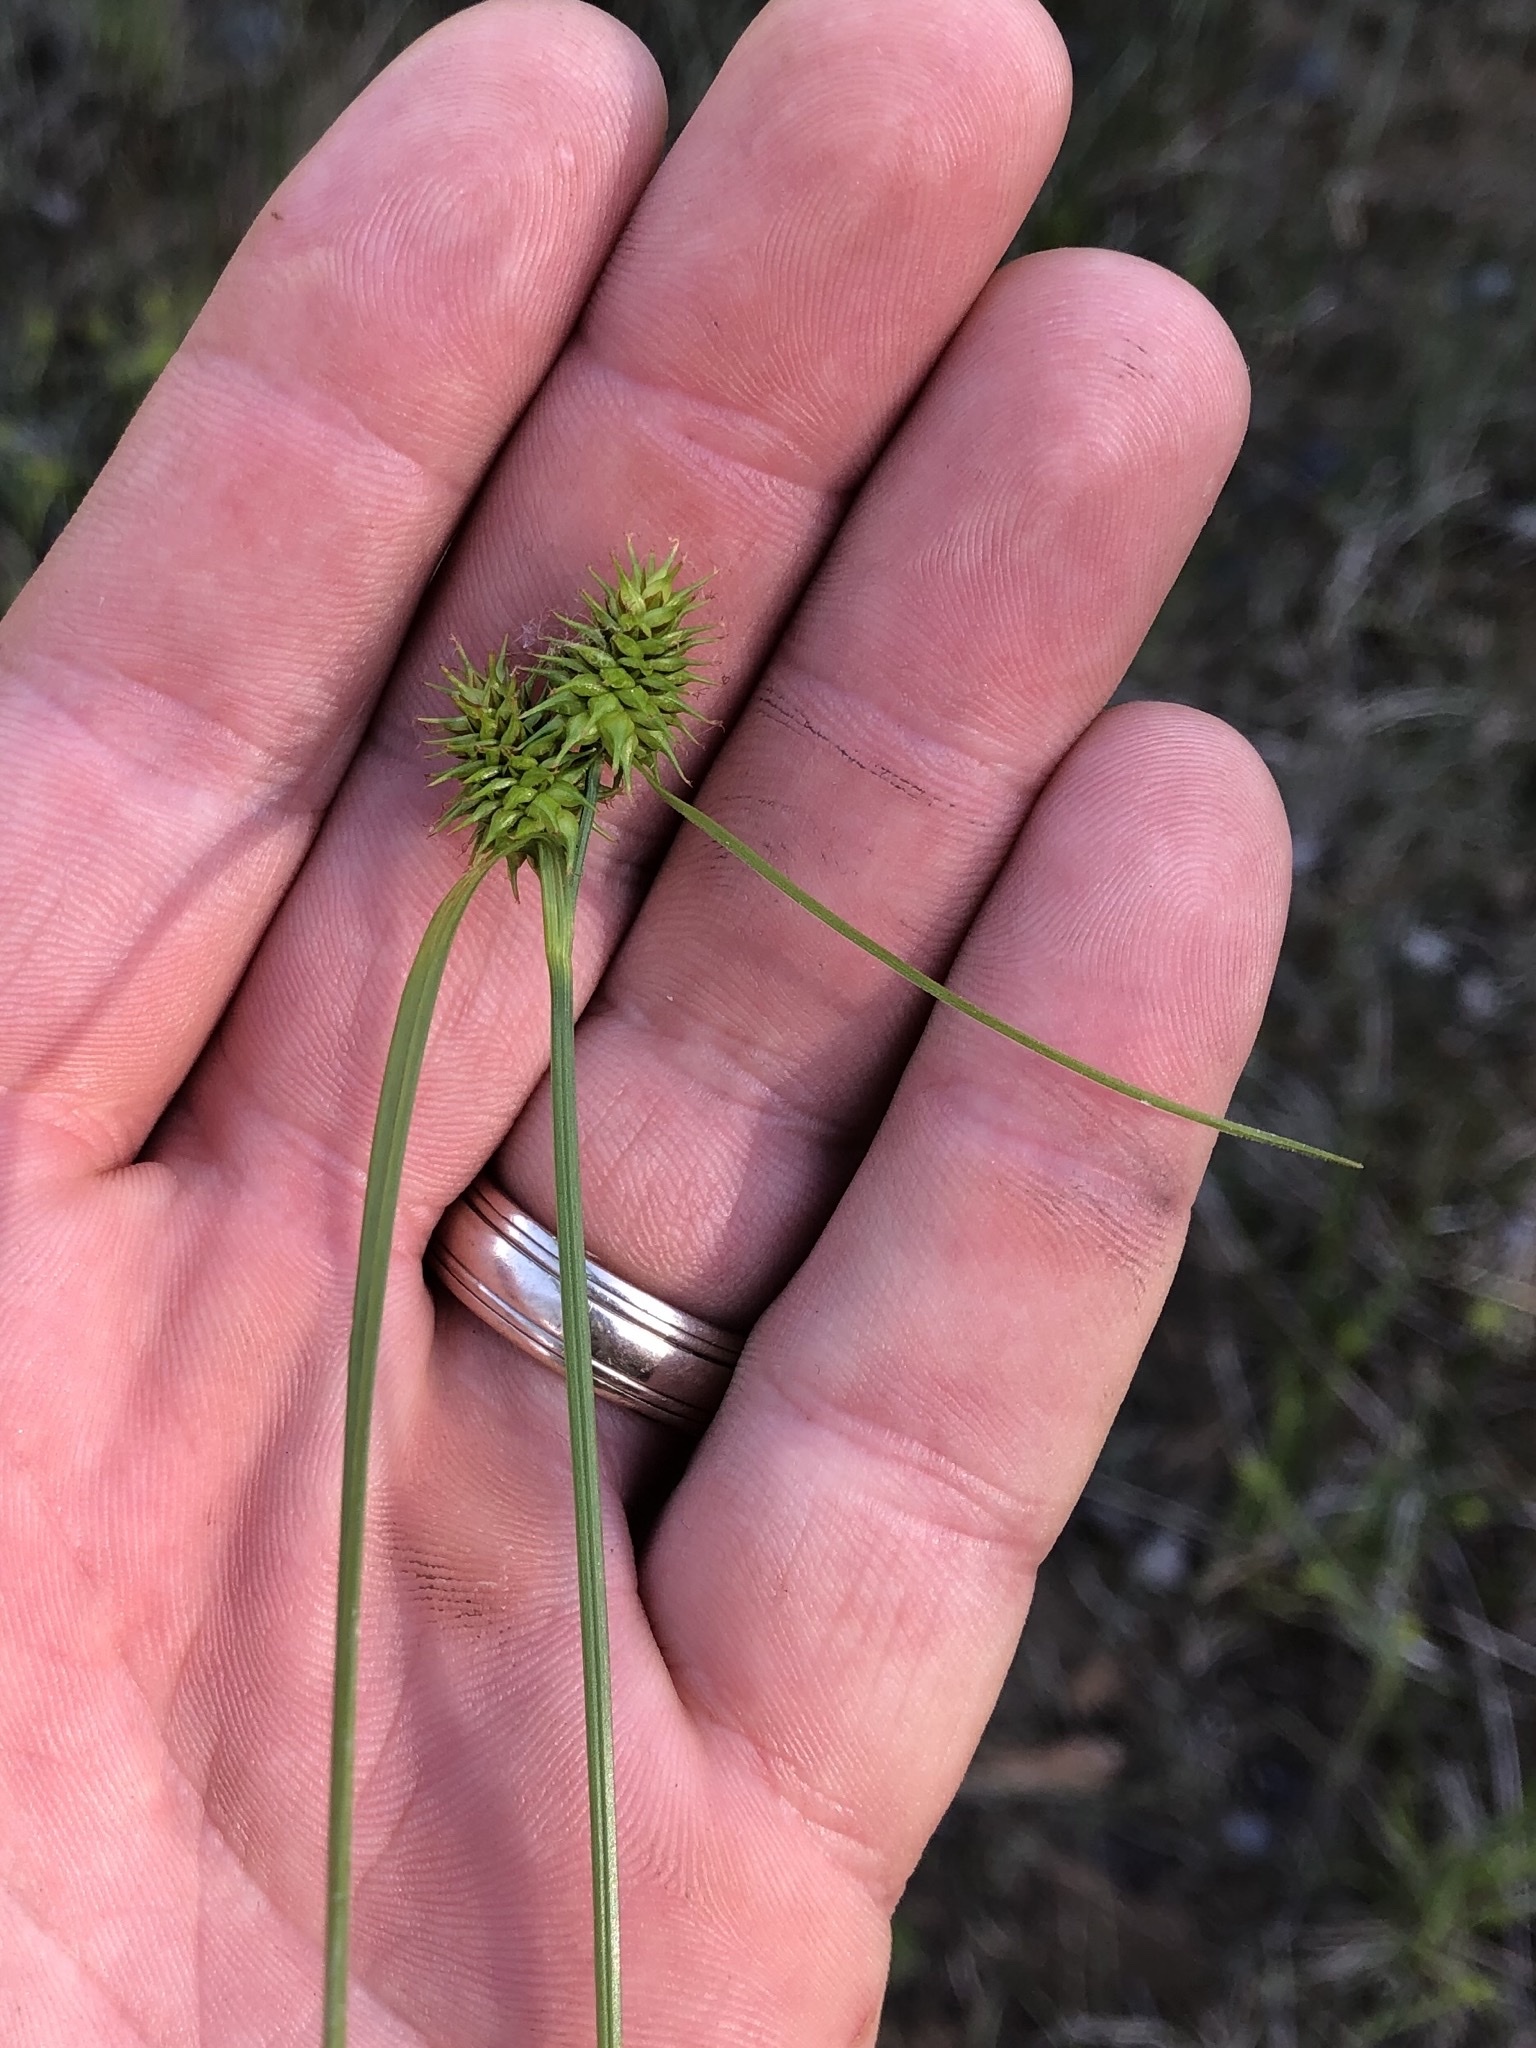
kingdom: Plantae
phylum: Tracheophyta
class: Liliopsida
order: Poales
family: Cyperaceae
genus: Carex
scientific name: Carex flava
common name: Large yellow-sedge
